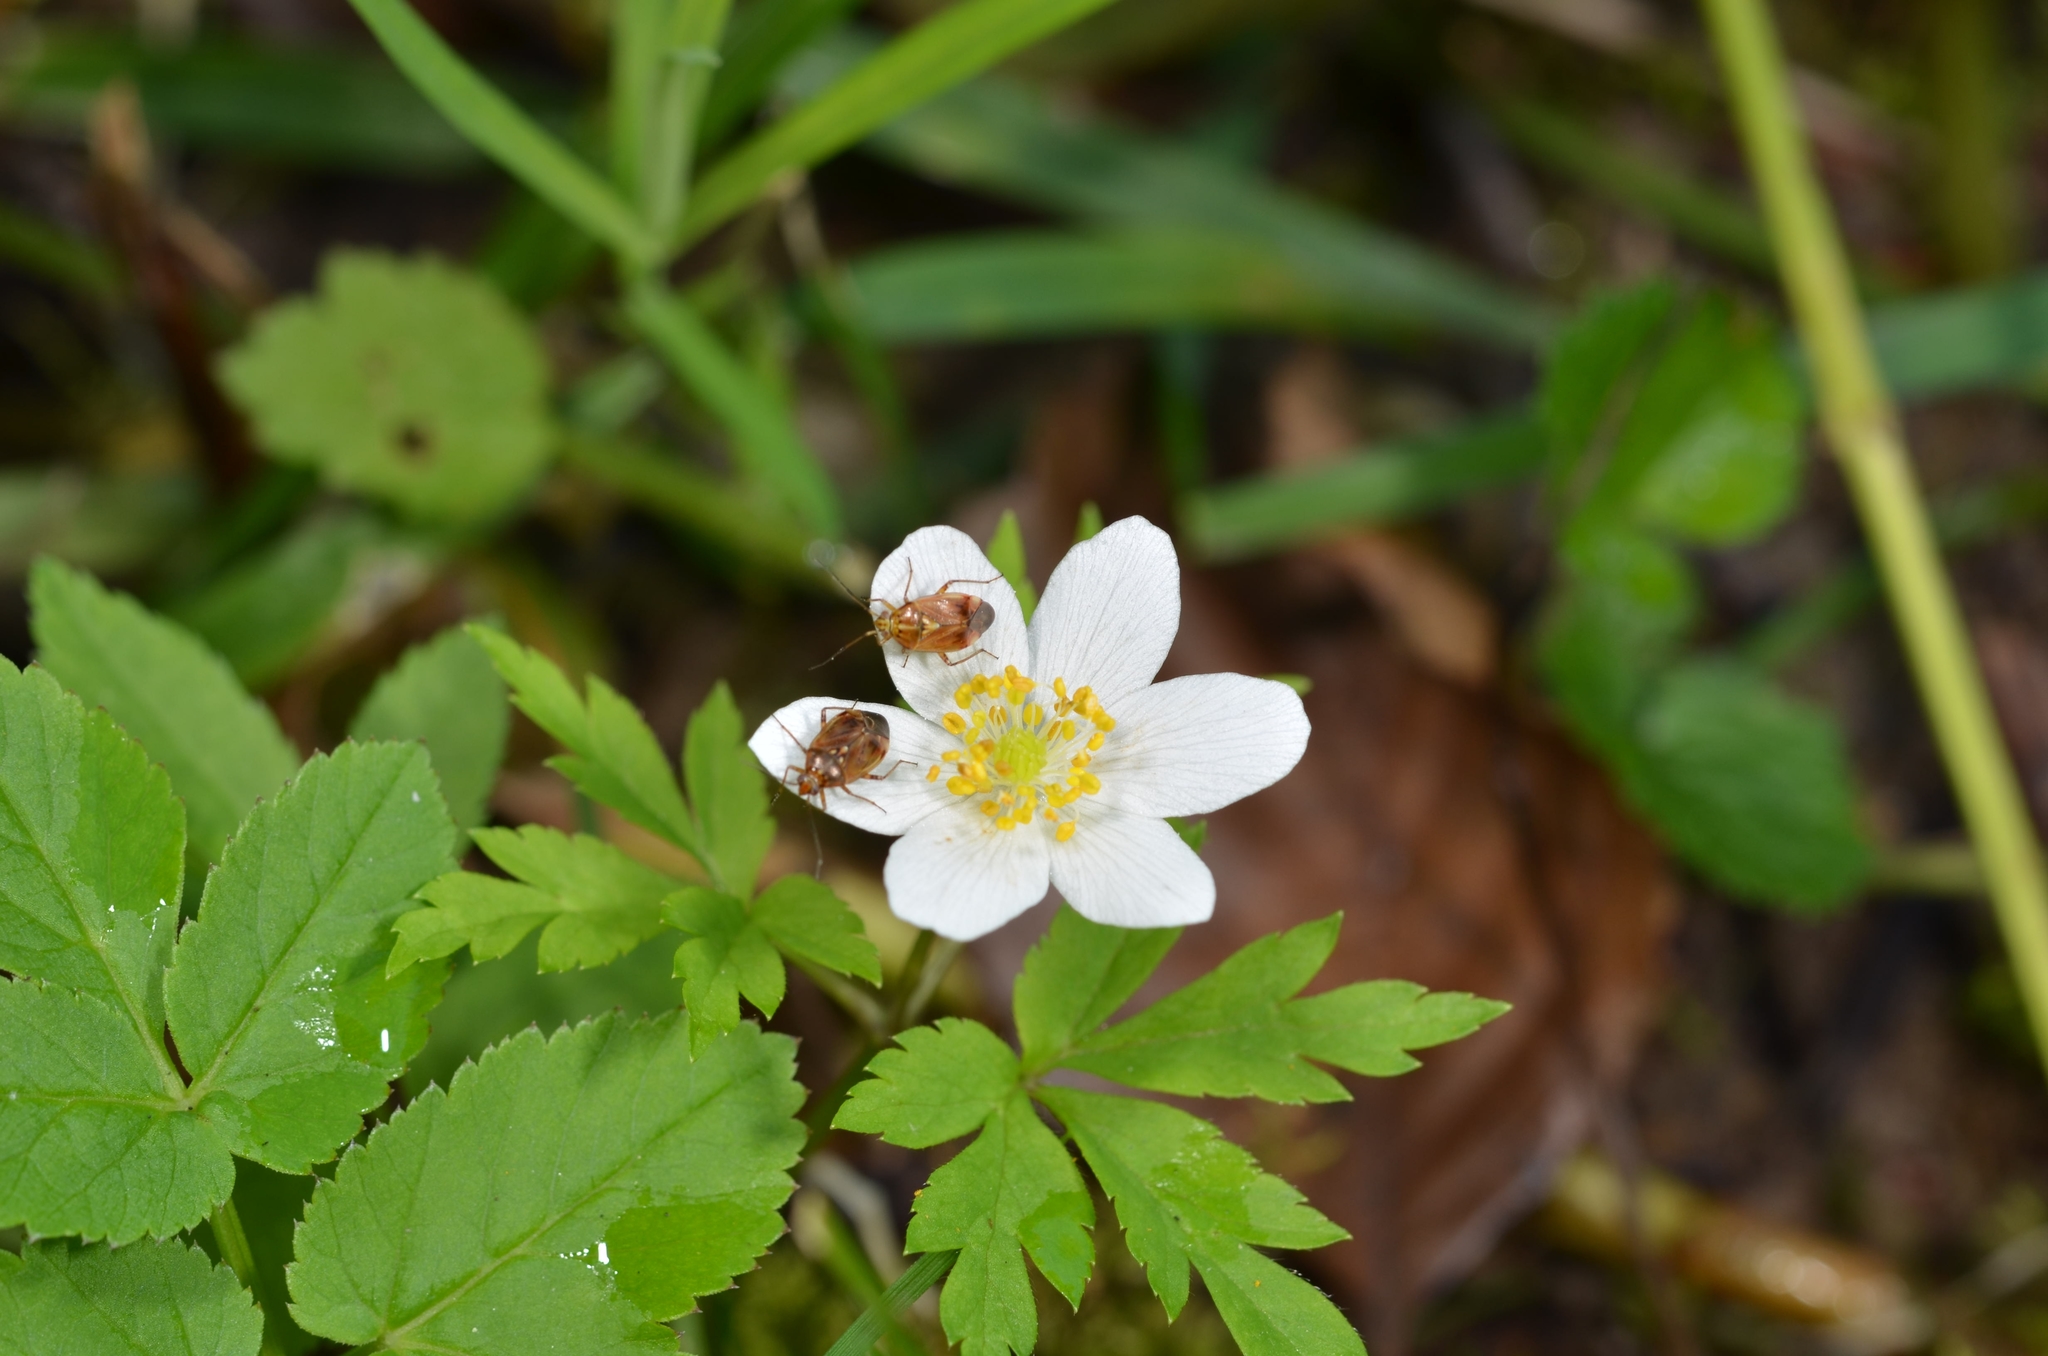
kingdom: Plantae
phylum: Tracheophyta
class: Magnoliopsida
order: Ranunculales
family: Ranunculaceae
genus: Anemone
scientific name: Anemone nemorosa
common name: Wood anemone
